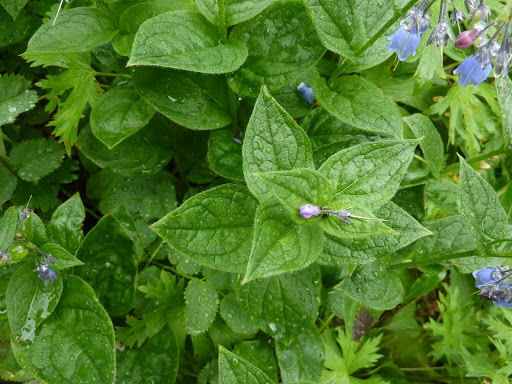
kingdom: Plantae
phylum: Tracheophyta
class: Magnoliopsida
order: Boraginales
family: Boraginaceae
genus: Mertensia
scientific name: Mertensia paniculata
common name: Panicled bluebells
